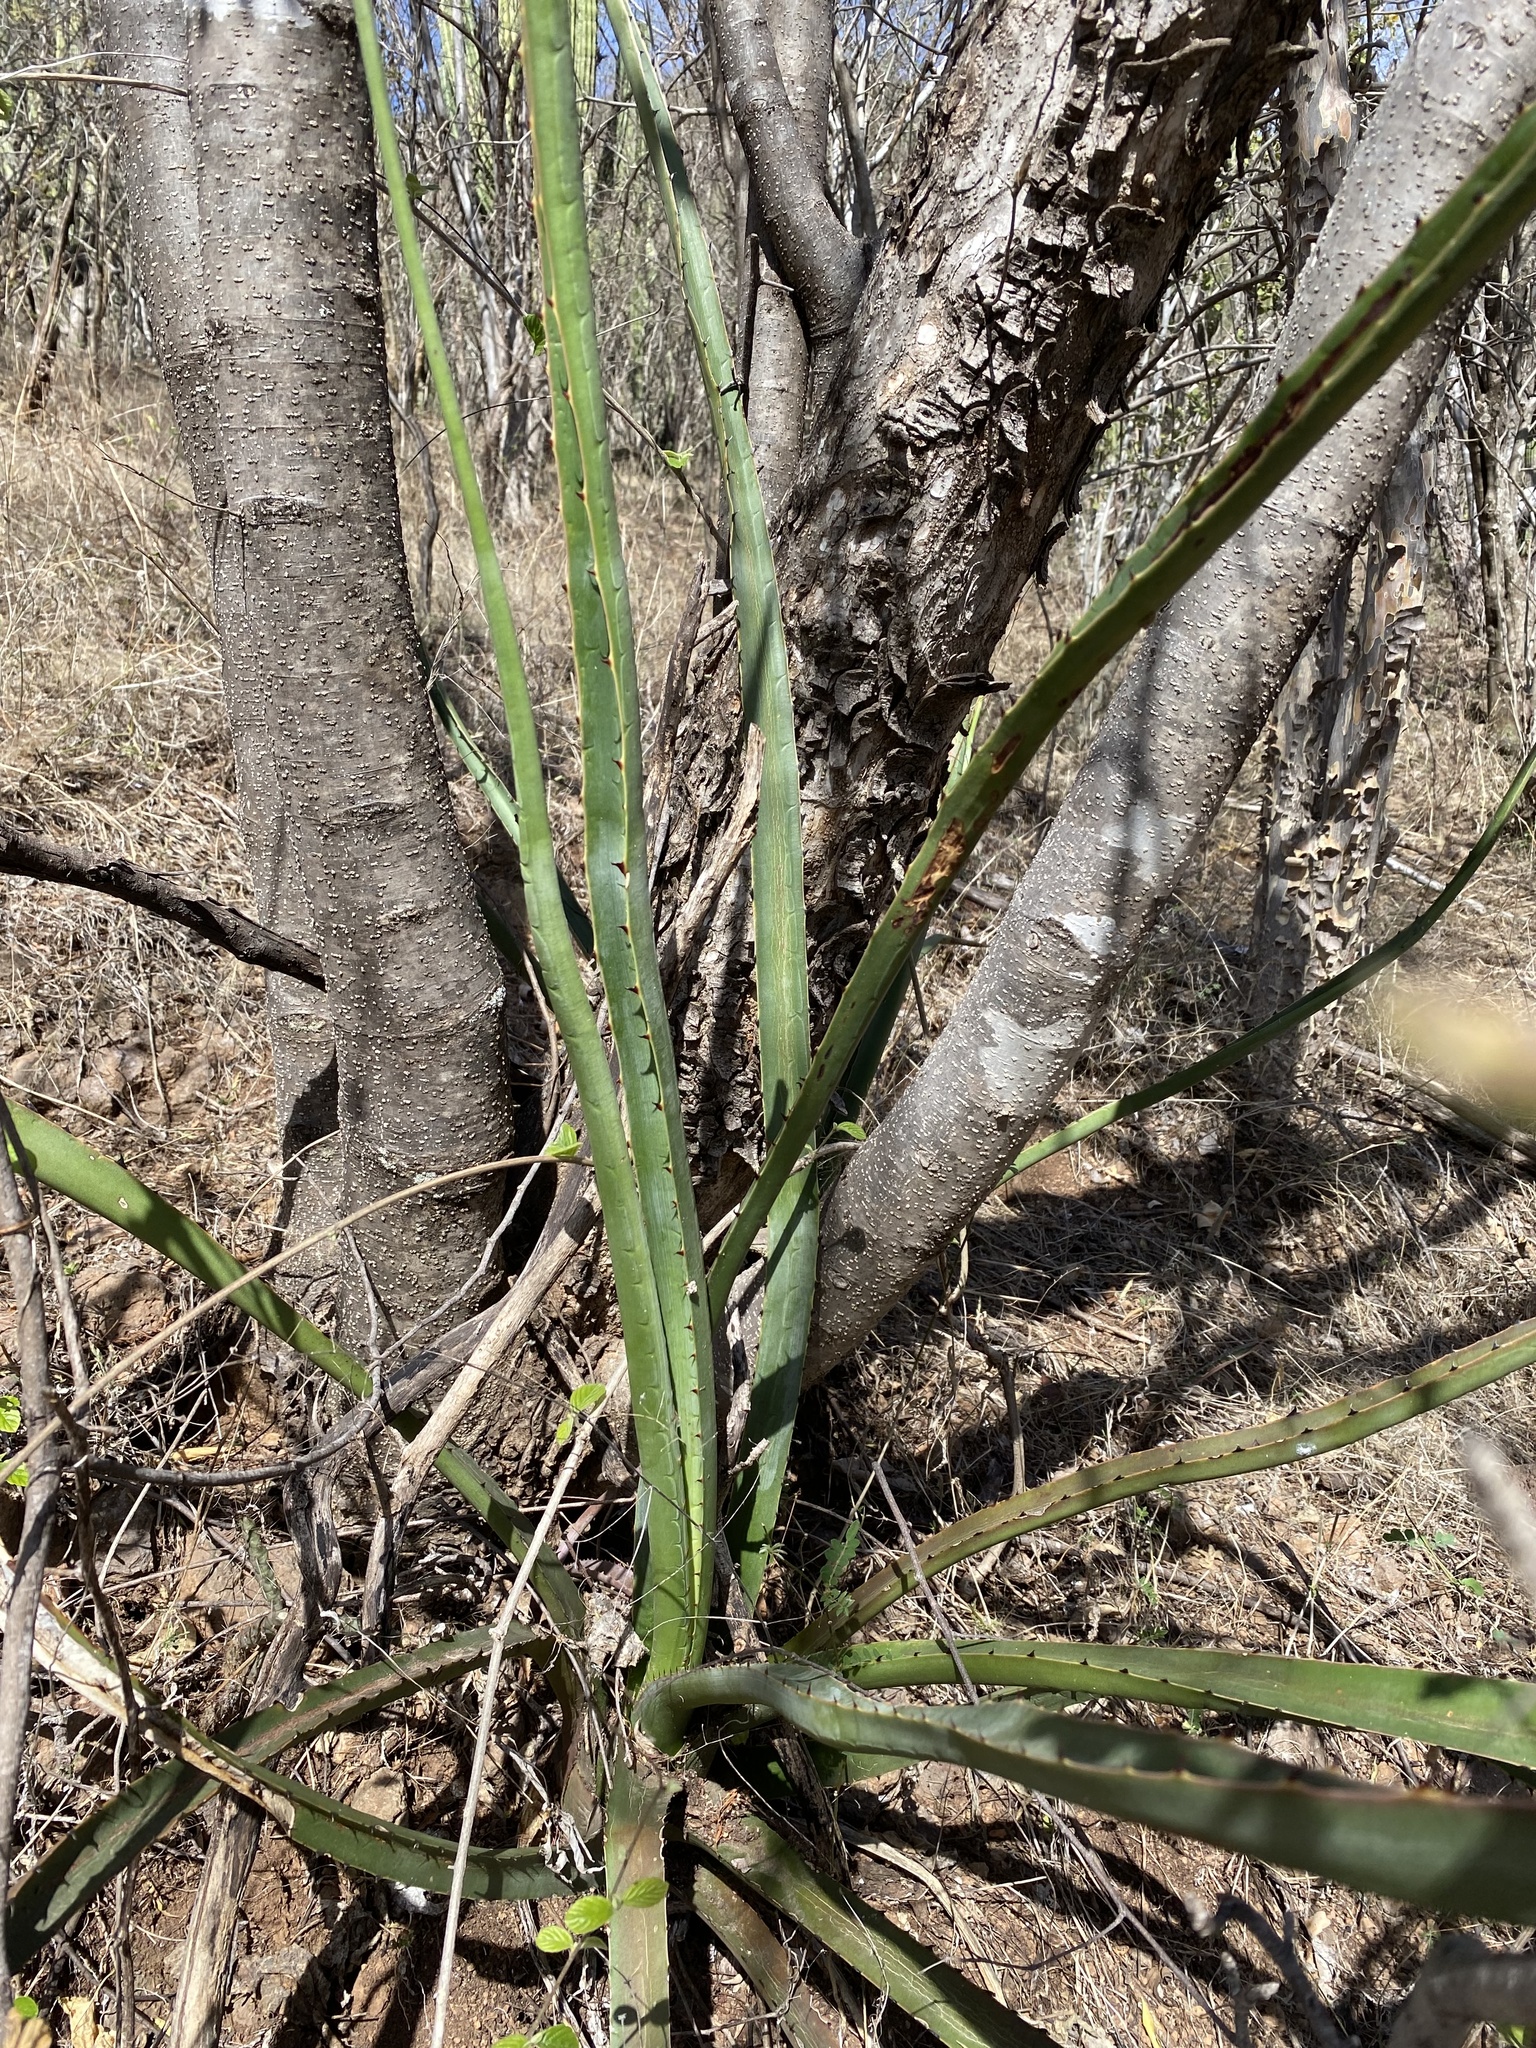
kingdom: Plantae
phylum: Tracheophyta
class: Liliopsida
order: Asparagales
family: Asparagaceae
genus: Agave
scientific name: Agave angustifolia
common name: Mescal agave
